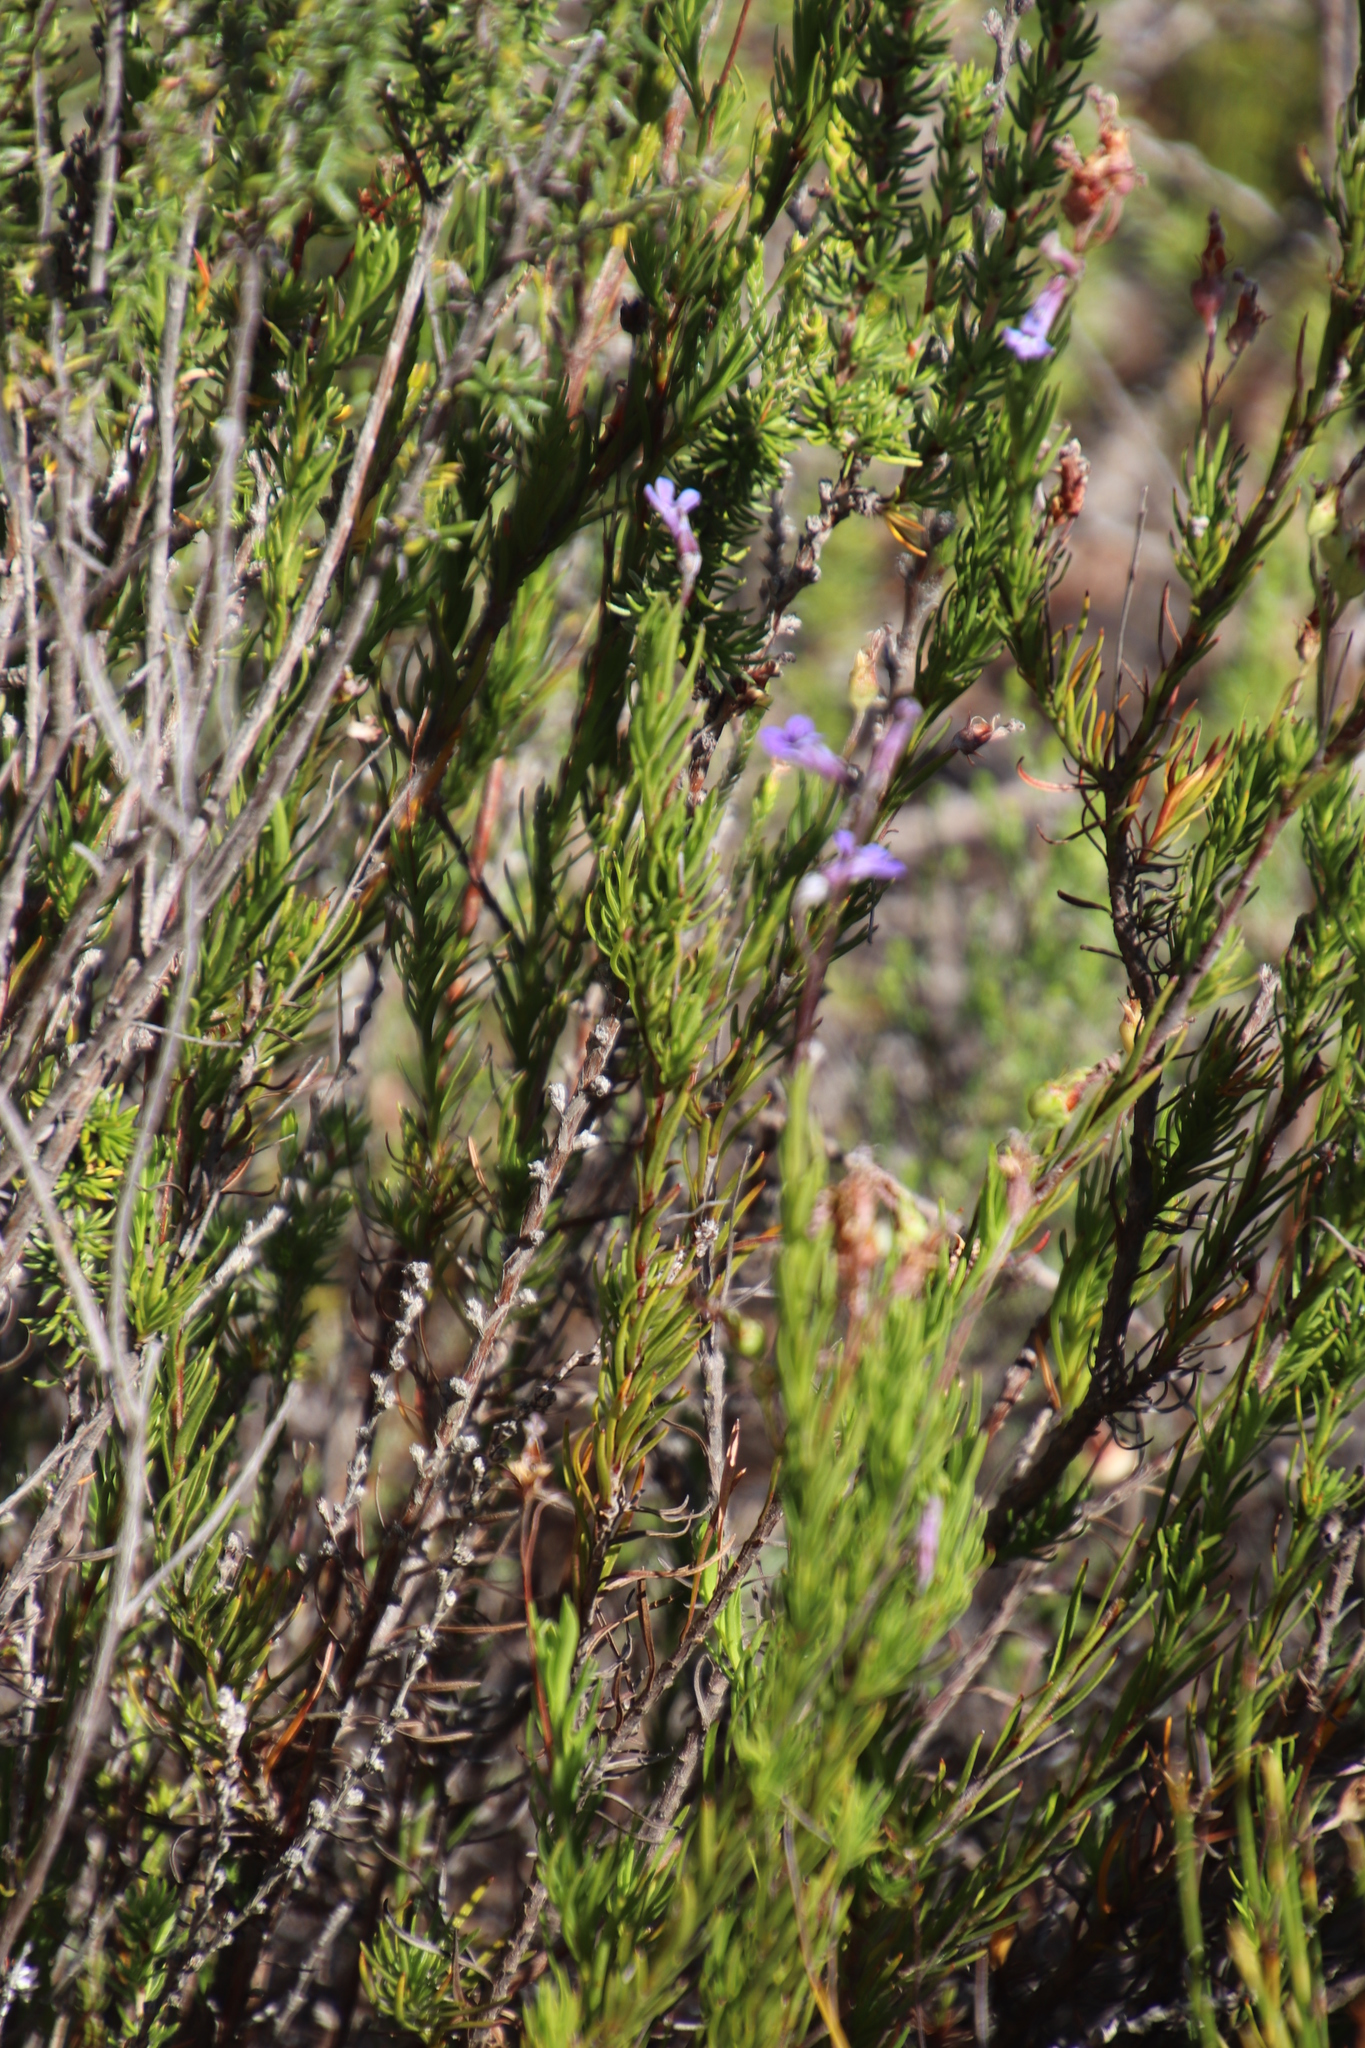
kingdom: Plantae
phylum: Tracheophyta
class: Magnoliopsida
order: Asterales
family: Campanulaceae
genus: Lobelia
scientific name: Lobelia pinifolia
